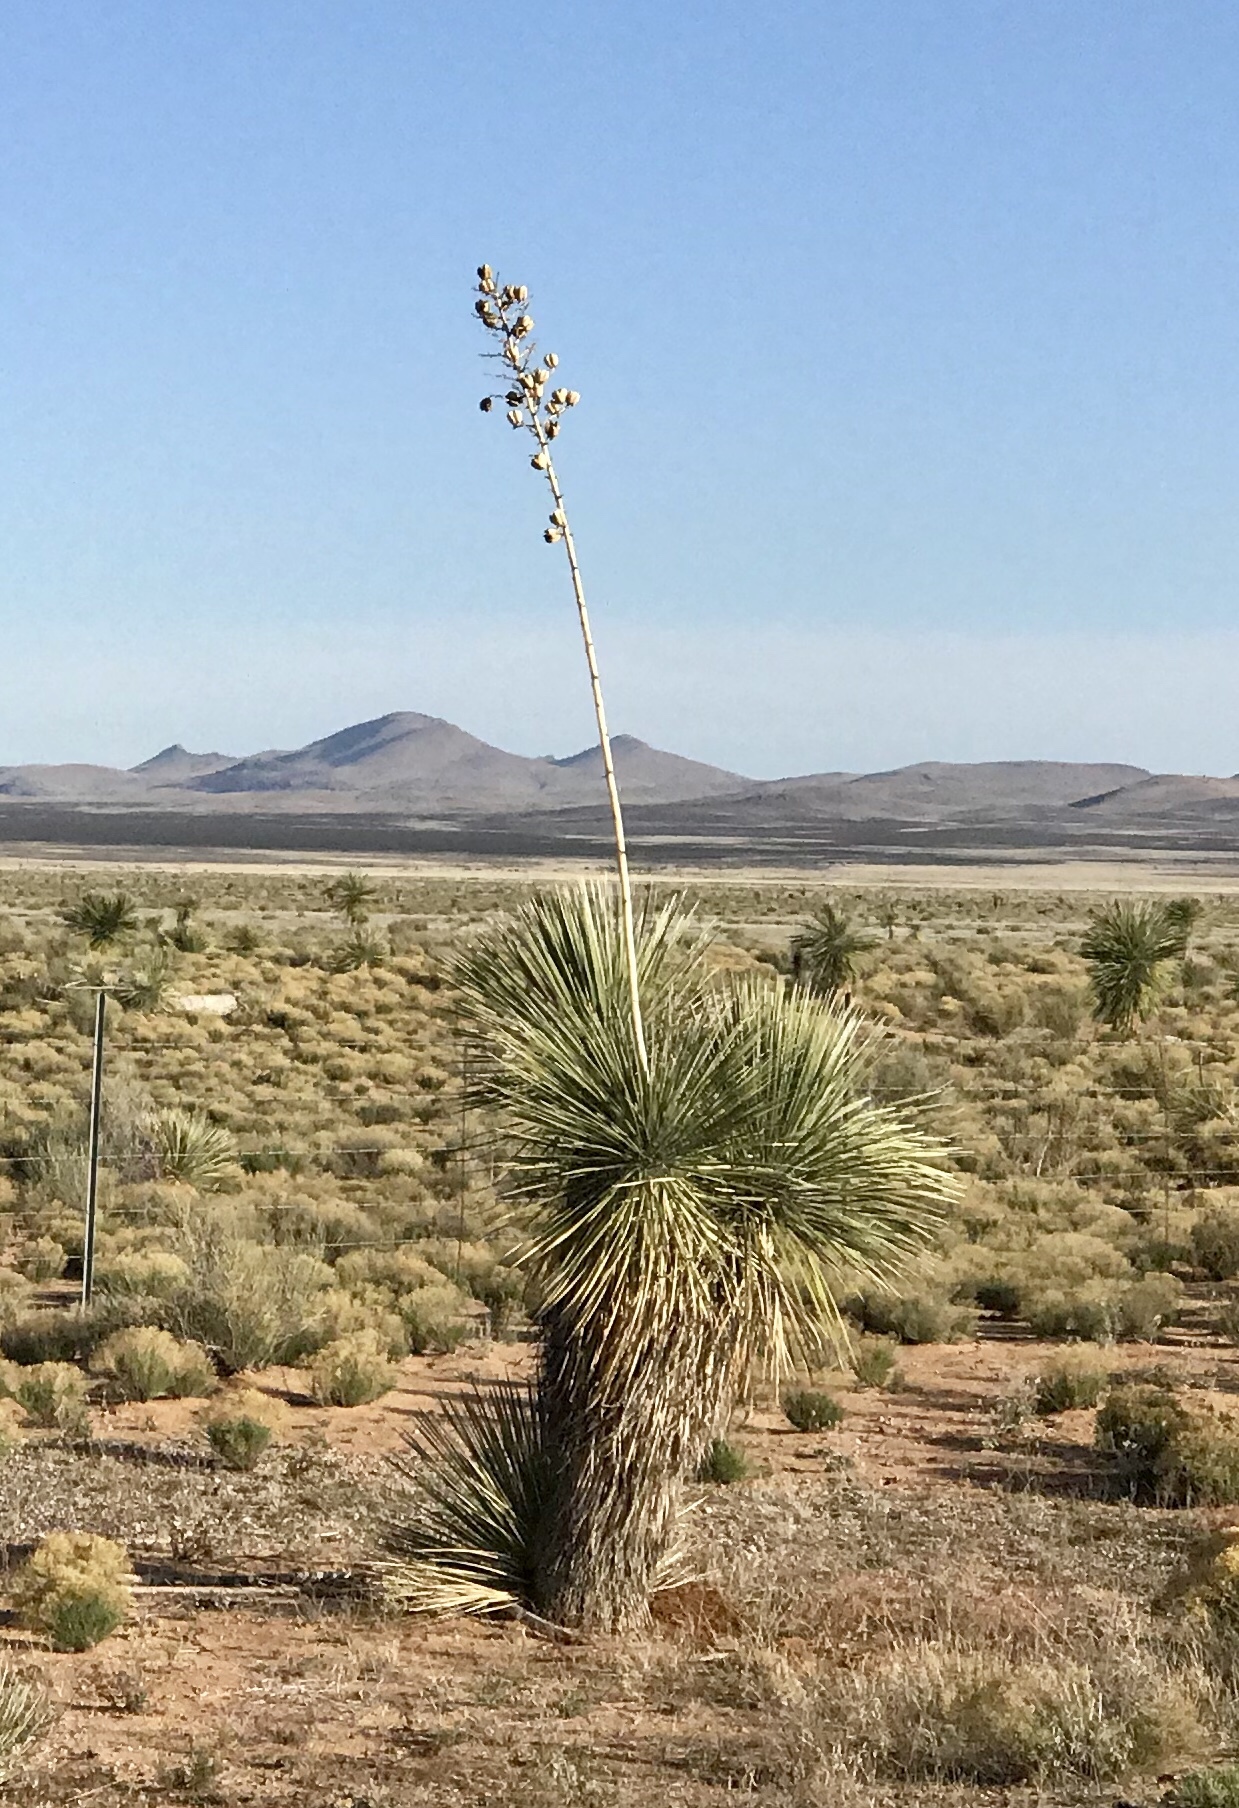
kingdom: Plantae
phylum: Tracheophyta
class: Liliopsida
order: Asparagales
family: Asparagaceae
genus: Yucca
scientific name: Yucca elata
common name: Palmella
